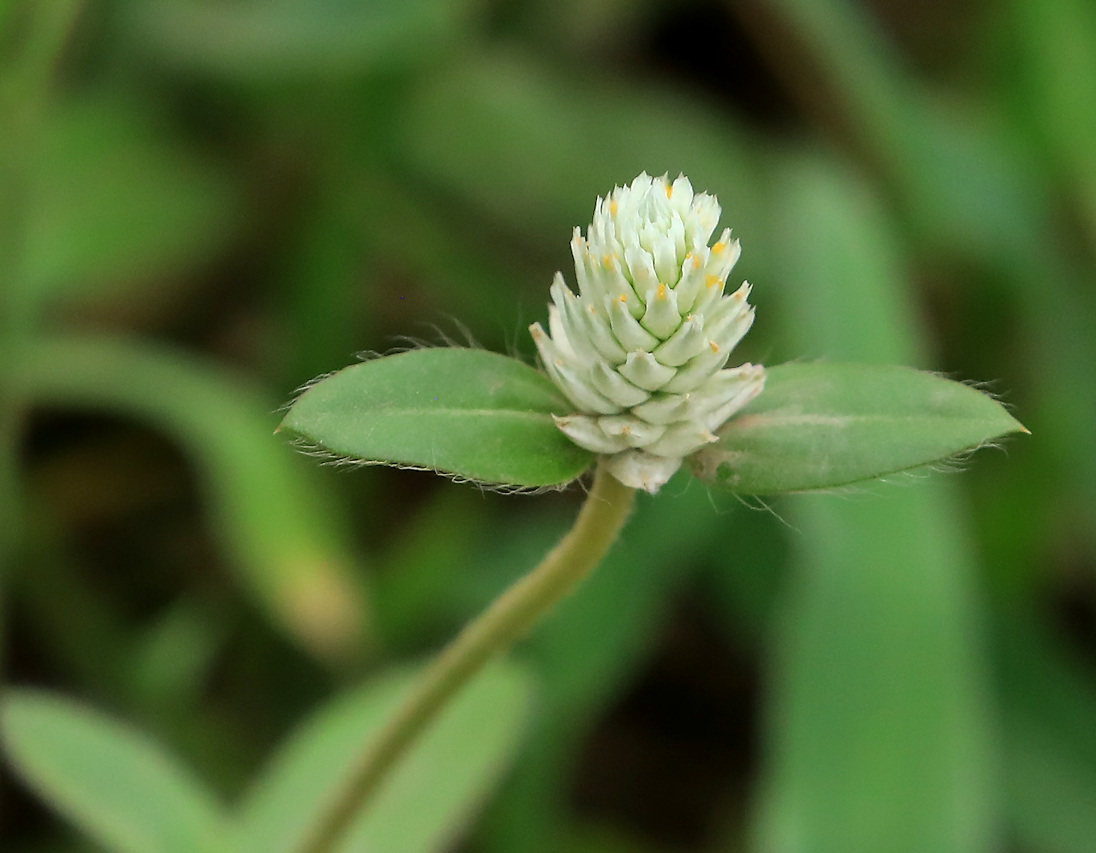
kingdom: Plantae
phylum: Tracheophyta
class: Magnoliopsida
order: Caryophyllales
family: Amaranthaceae
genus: Gomphrena
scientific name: Gomphrena celosioides
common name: Gomphrena-weed
